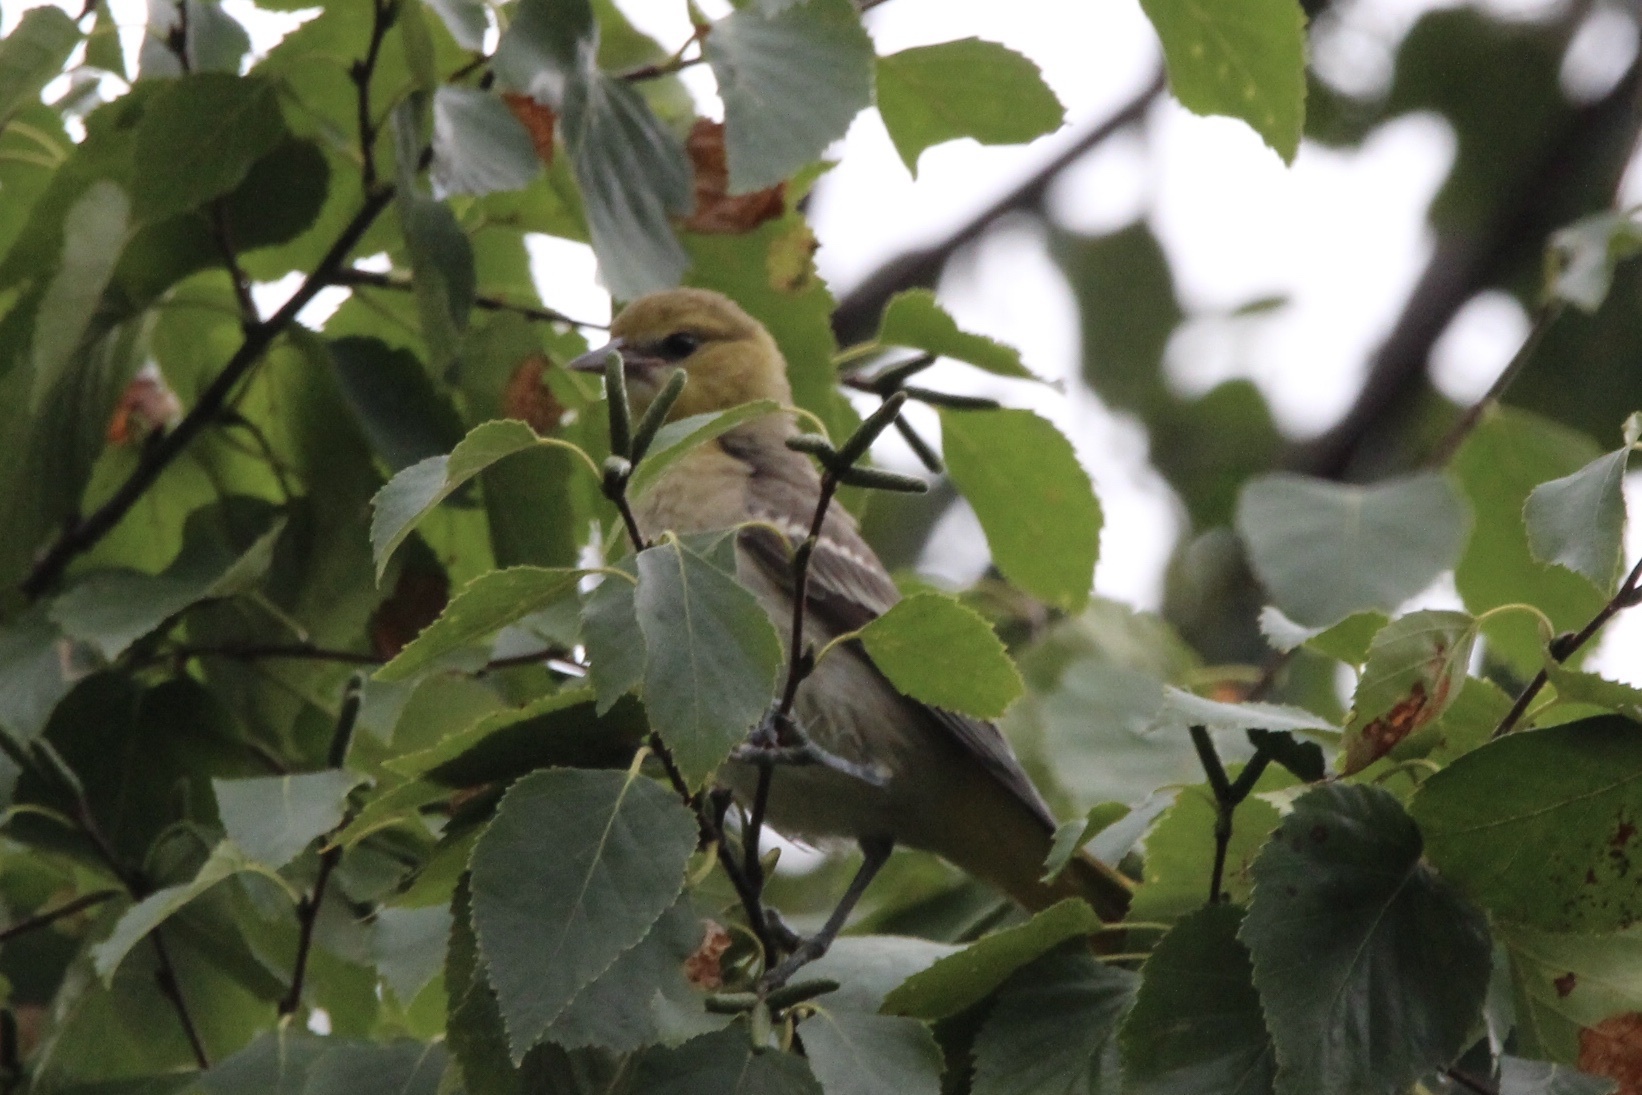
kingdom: Animalia
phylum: Chordata
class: Aves
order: Passeriformes
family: Icteridae
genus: Icterus
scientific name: Icterus bullockii
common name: Bullock's oriole
